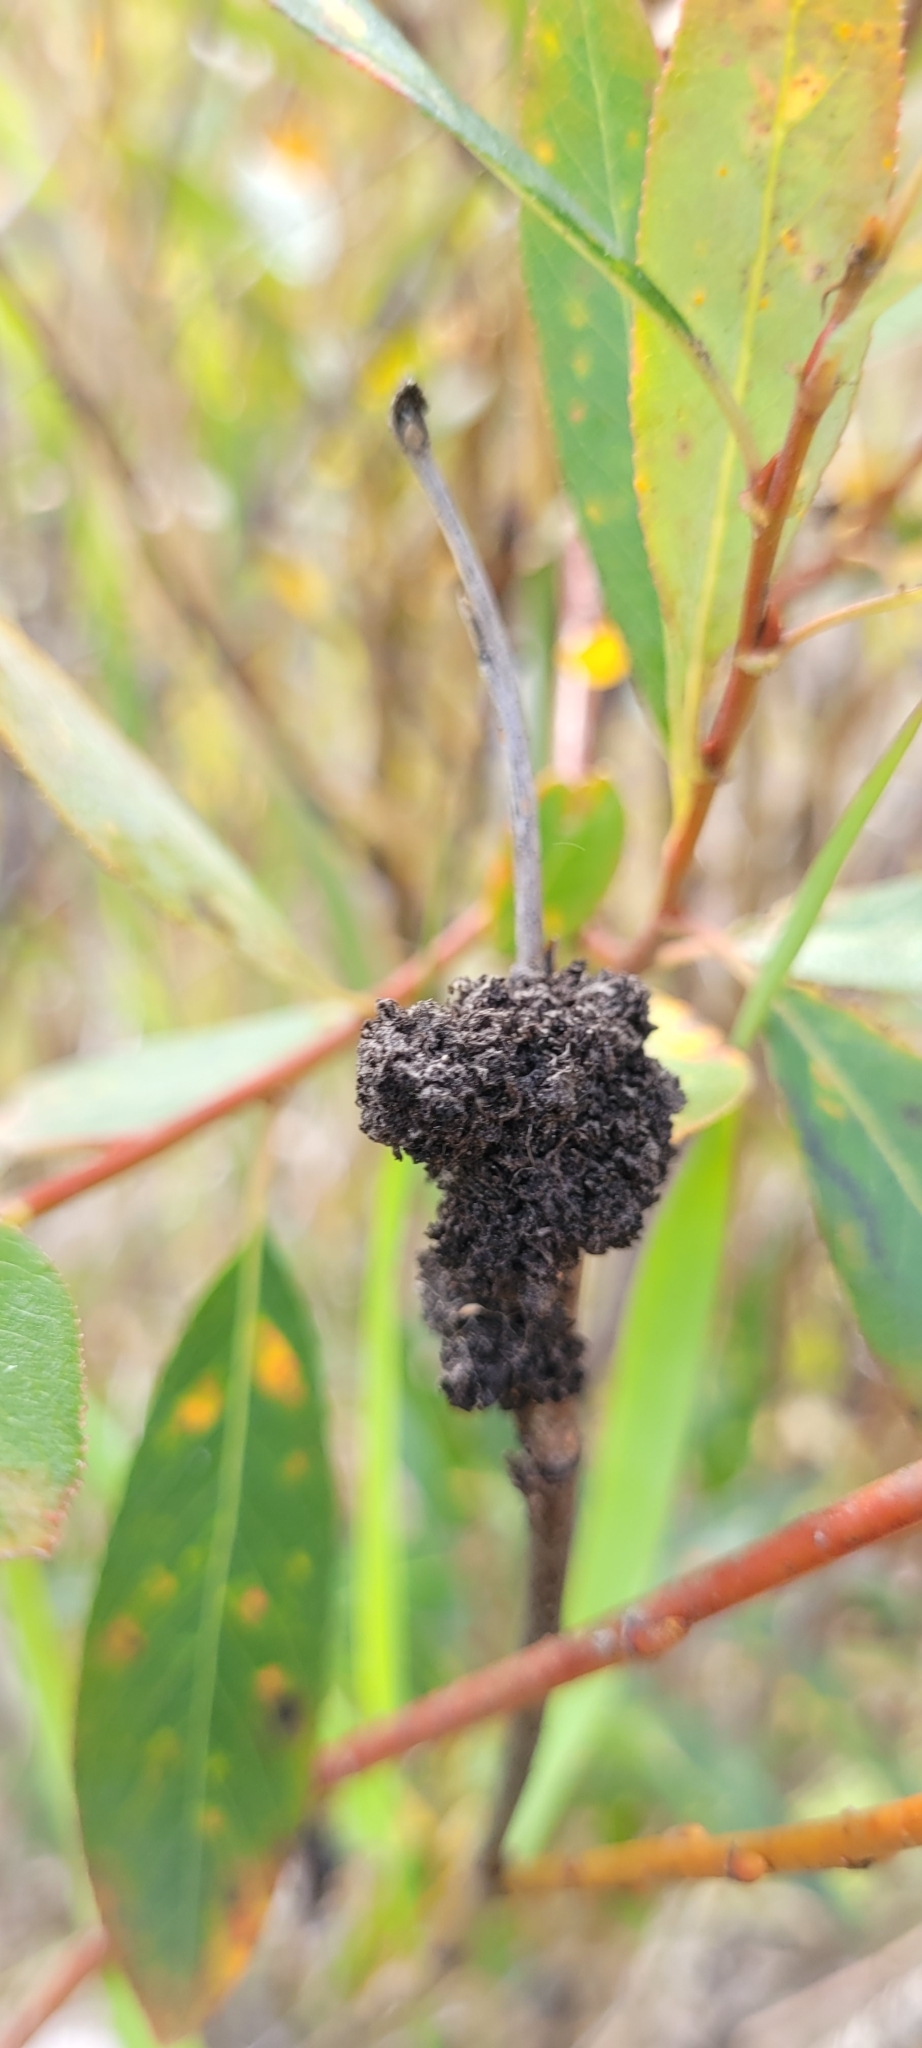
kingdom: Animalia
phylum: Arthropoda
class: Insecta
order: Coleoptera
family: Curculionidae
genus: Cryptorhynchus
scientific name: Cryptorhynchus lapathi
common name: Weevil
